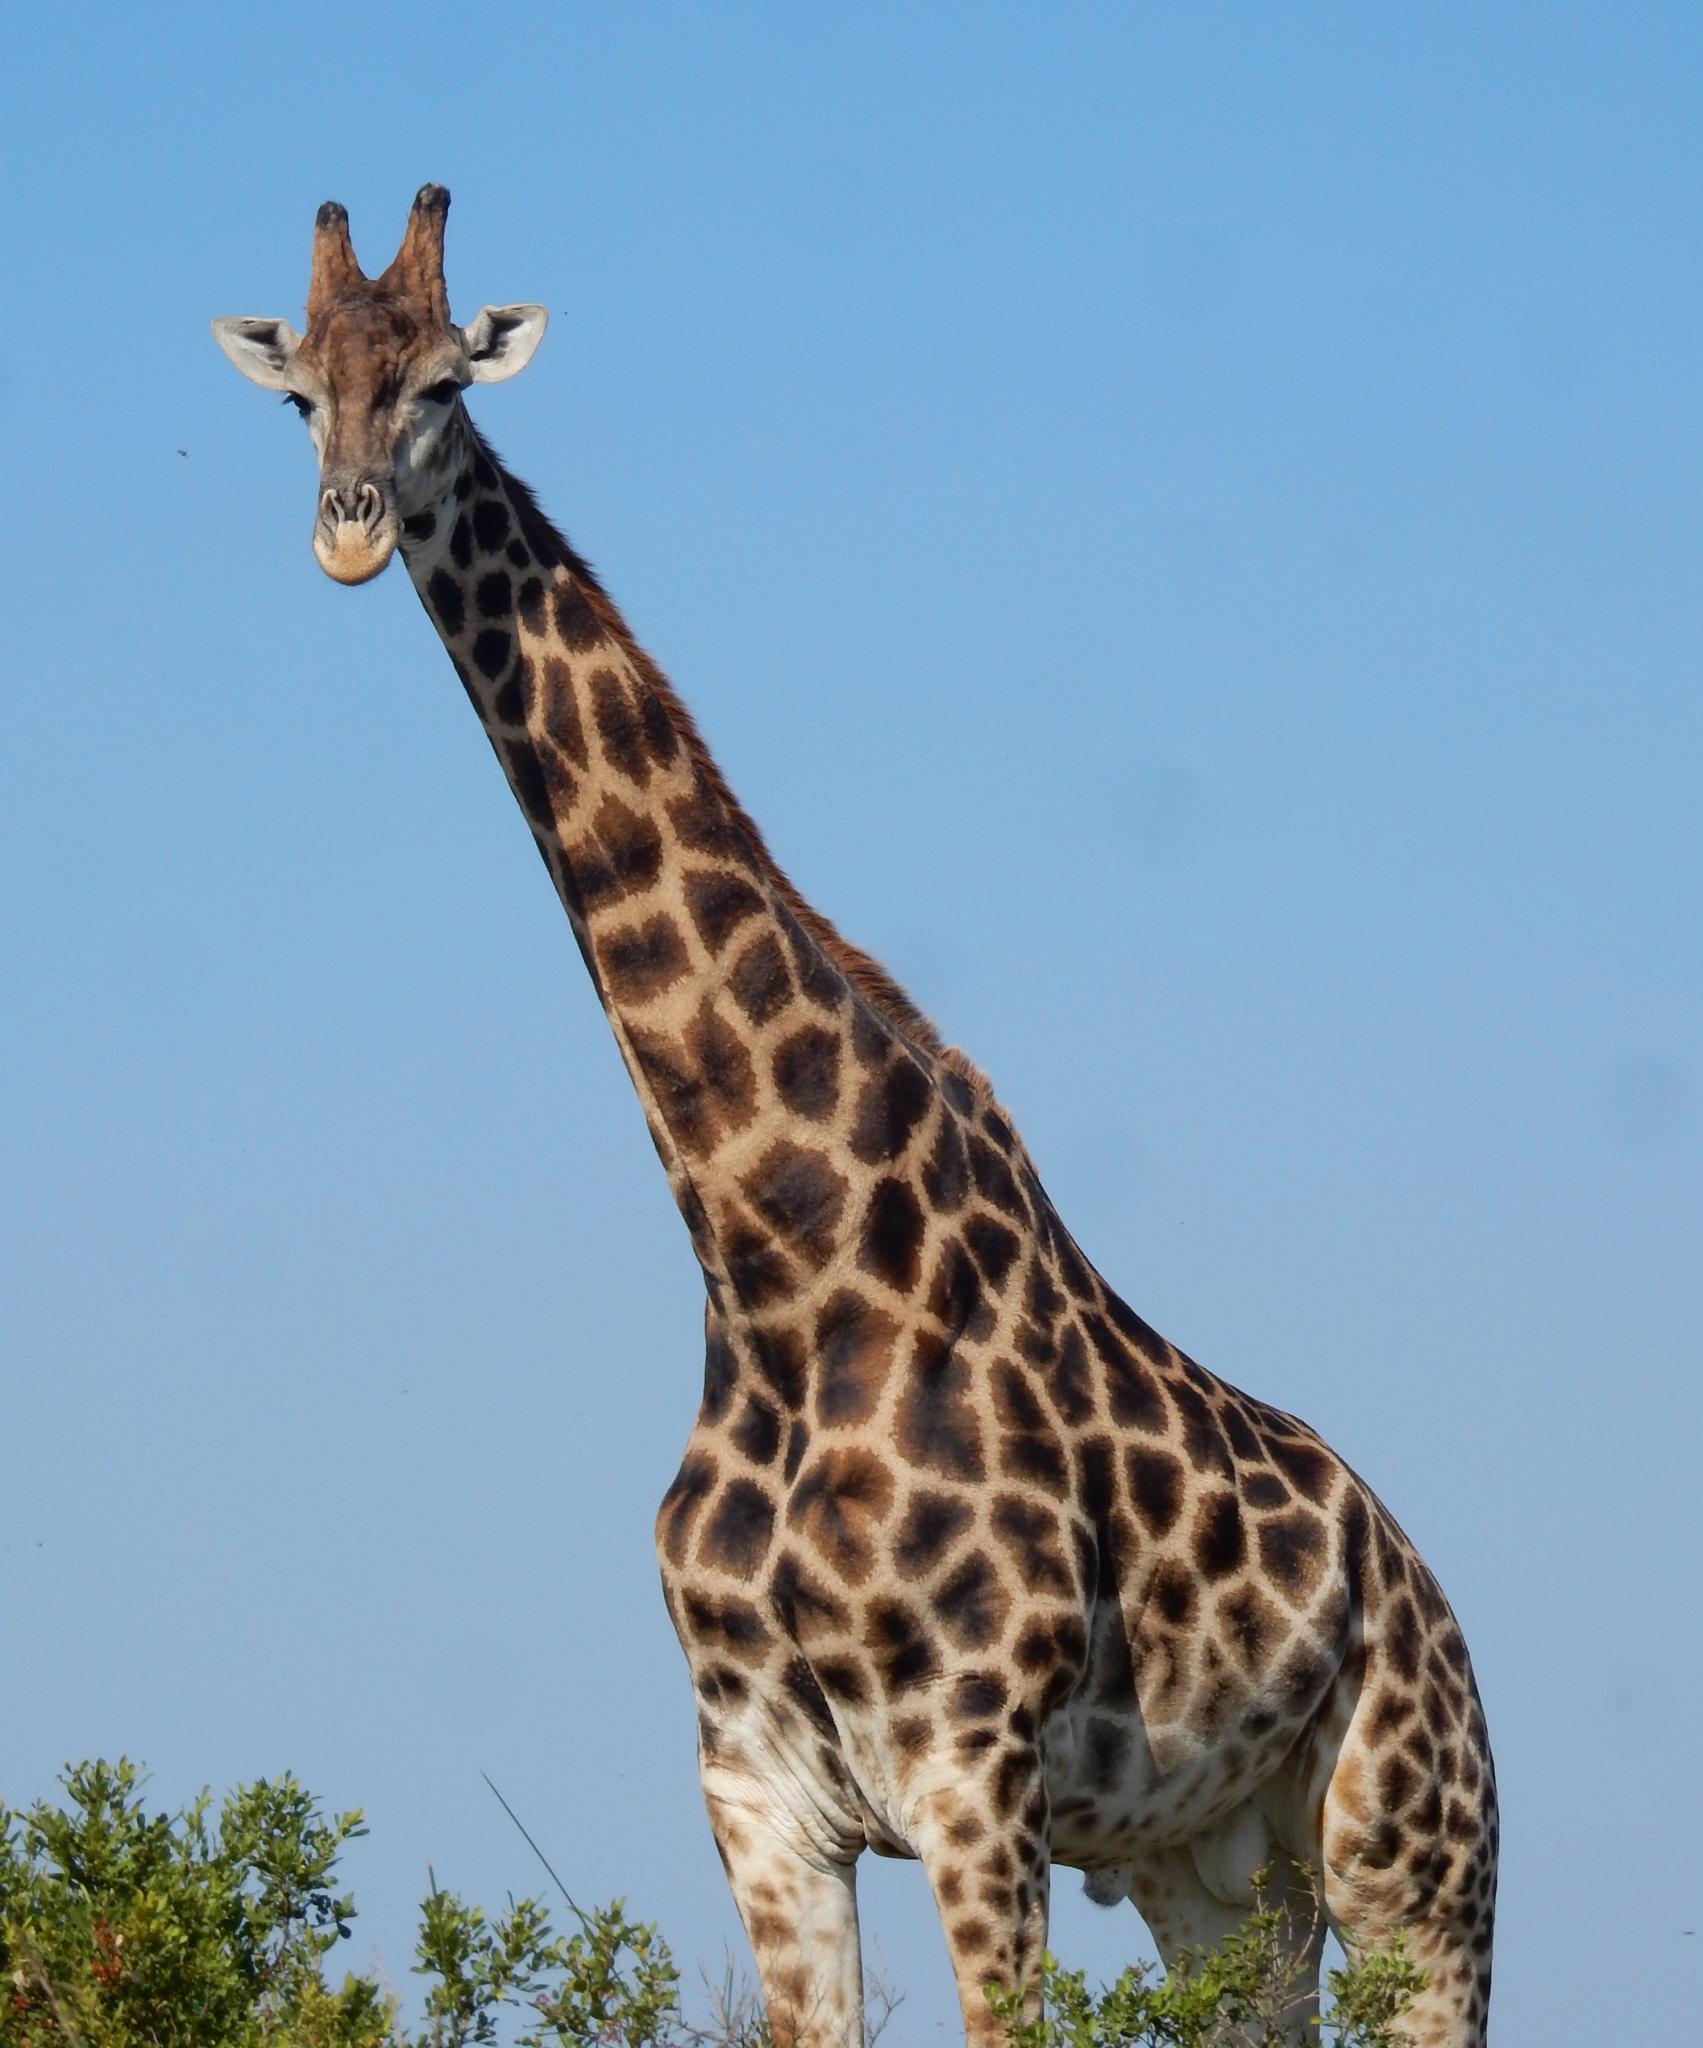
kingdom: Animalia
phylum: Chordata
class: Mammalia
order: Artiodactyla
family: Giraffidae
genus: Giraffa
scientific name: Giraffa giraffa
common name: Southern giraffe
